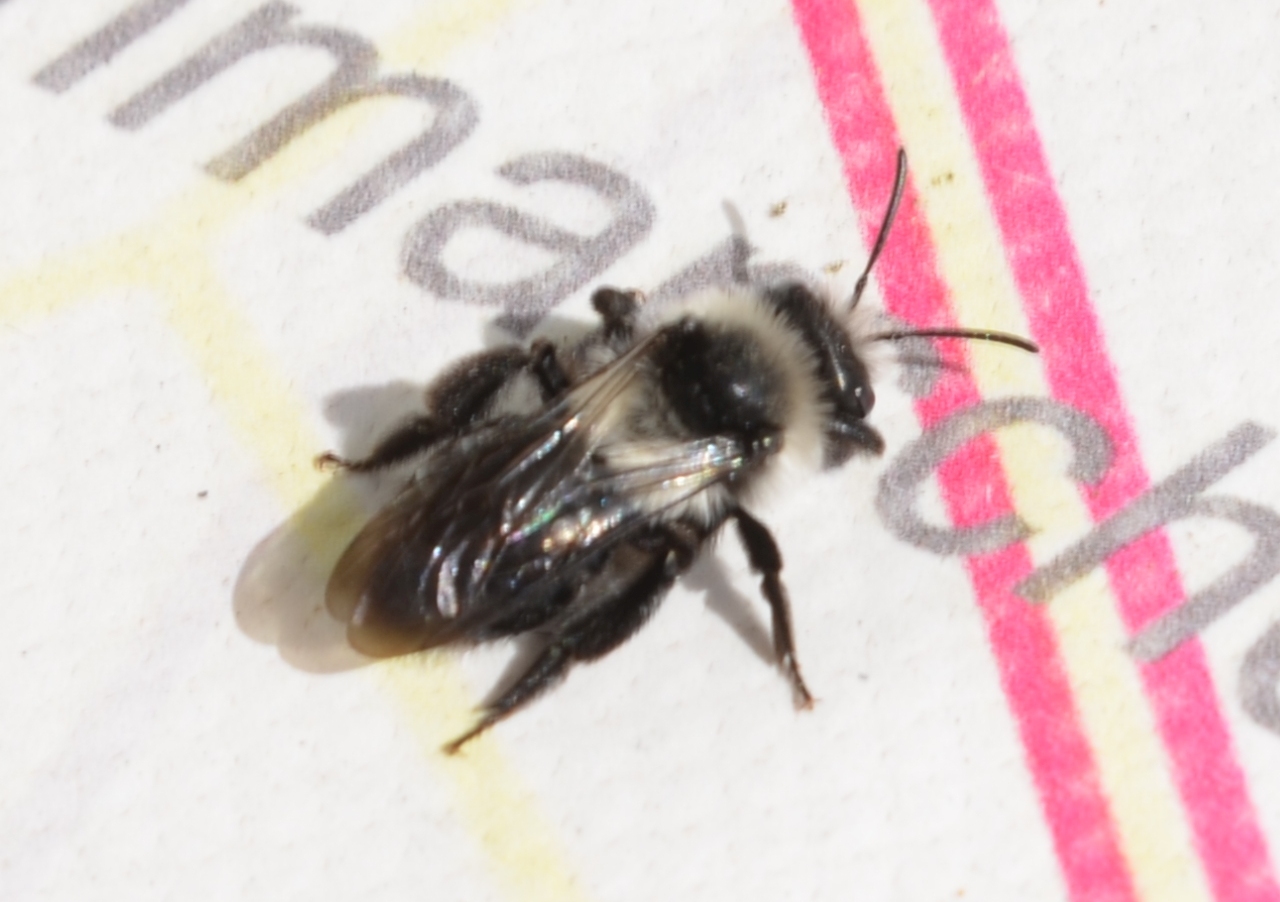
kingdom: Animalia
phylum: Arthropoda
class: Insecta
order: Hymenoptera
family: Andrenidae
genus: Andrena
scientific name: Andrena cineraria
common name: Ashy mining bee
